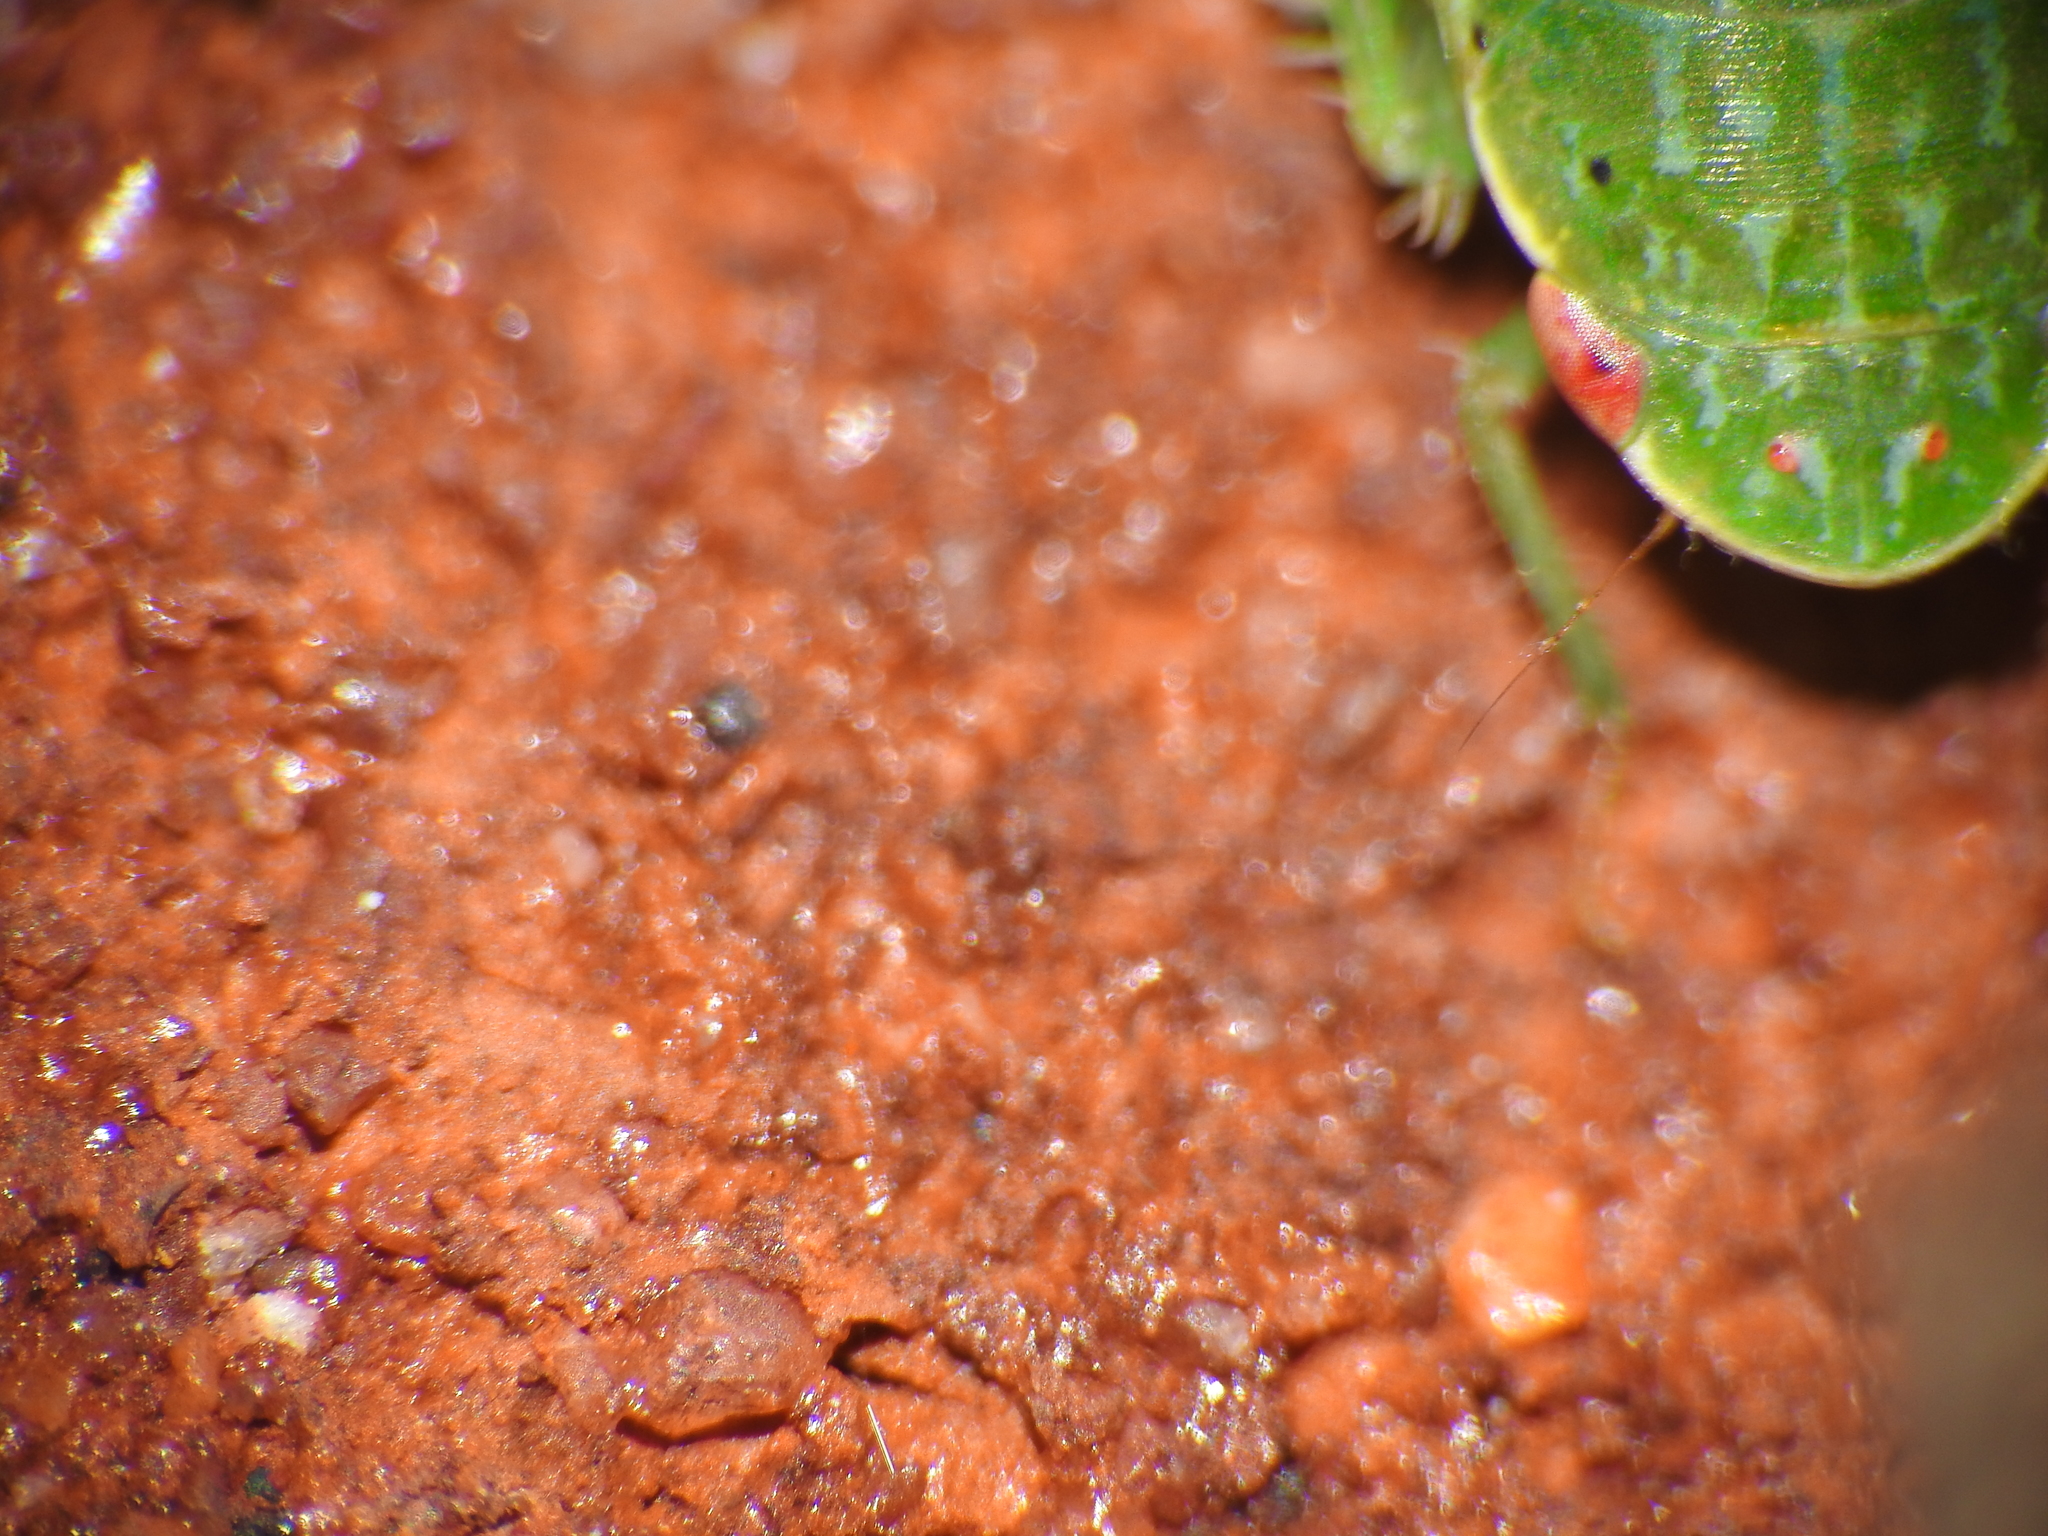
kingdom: Animalia
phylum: Arthropoda
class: Insecta
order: Hemiptera
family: Cicadellidae
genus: Rugosana
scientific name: Rugosana querci
